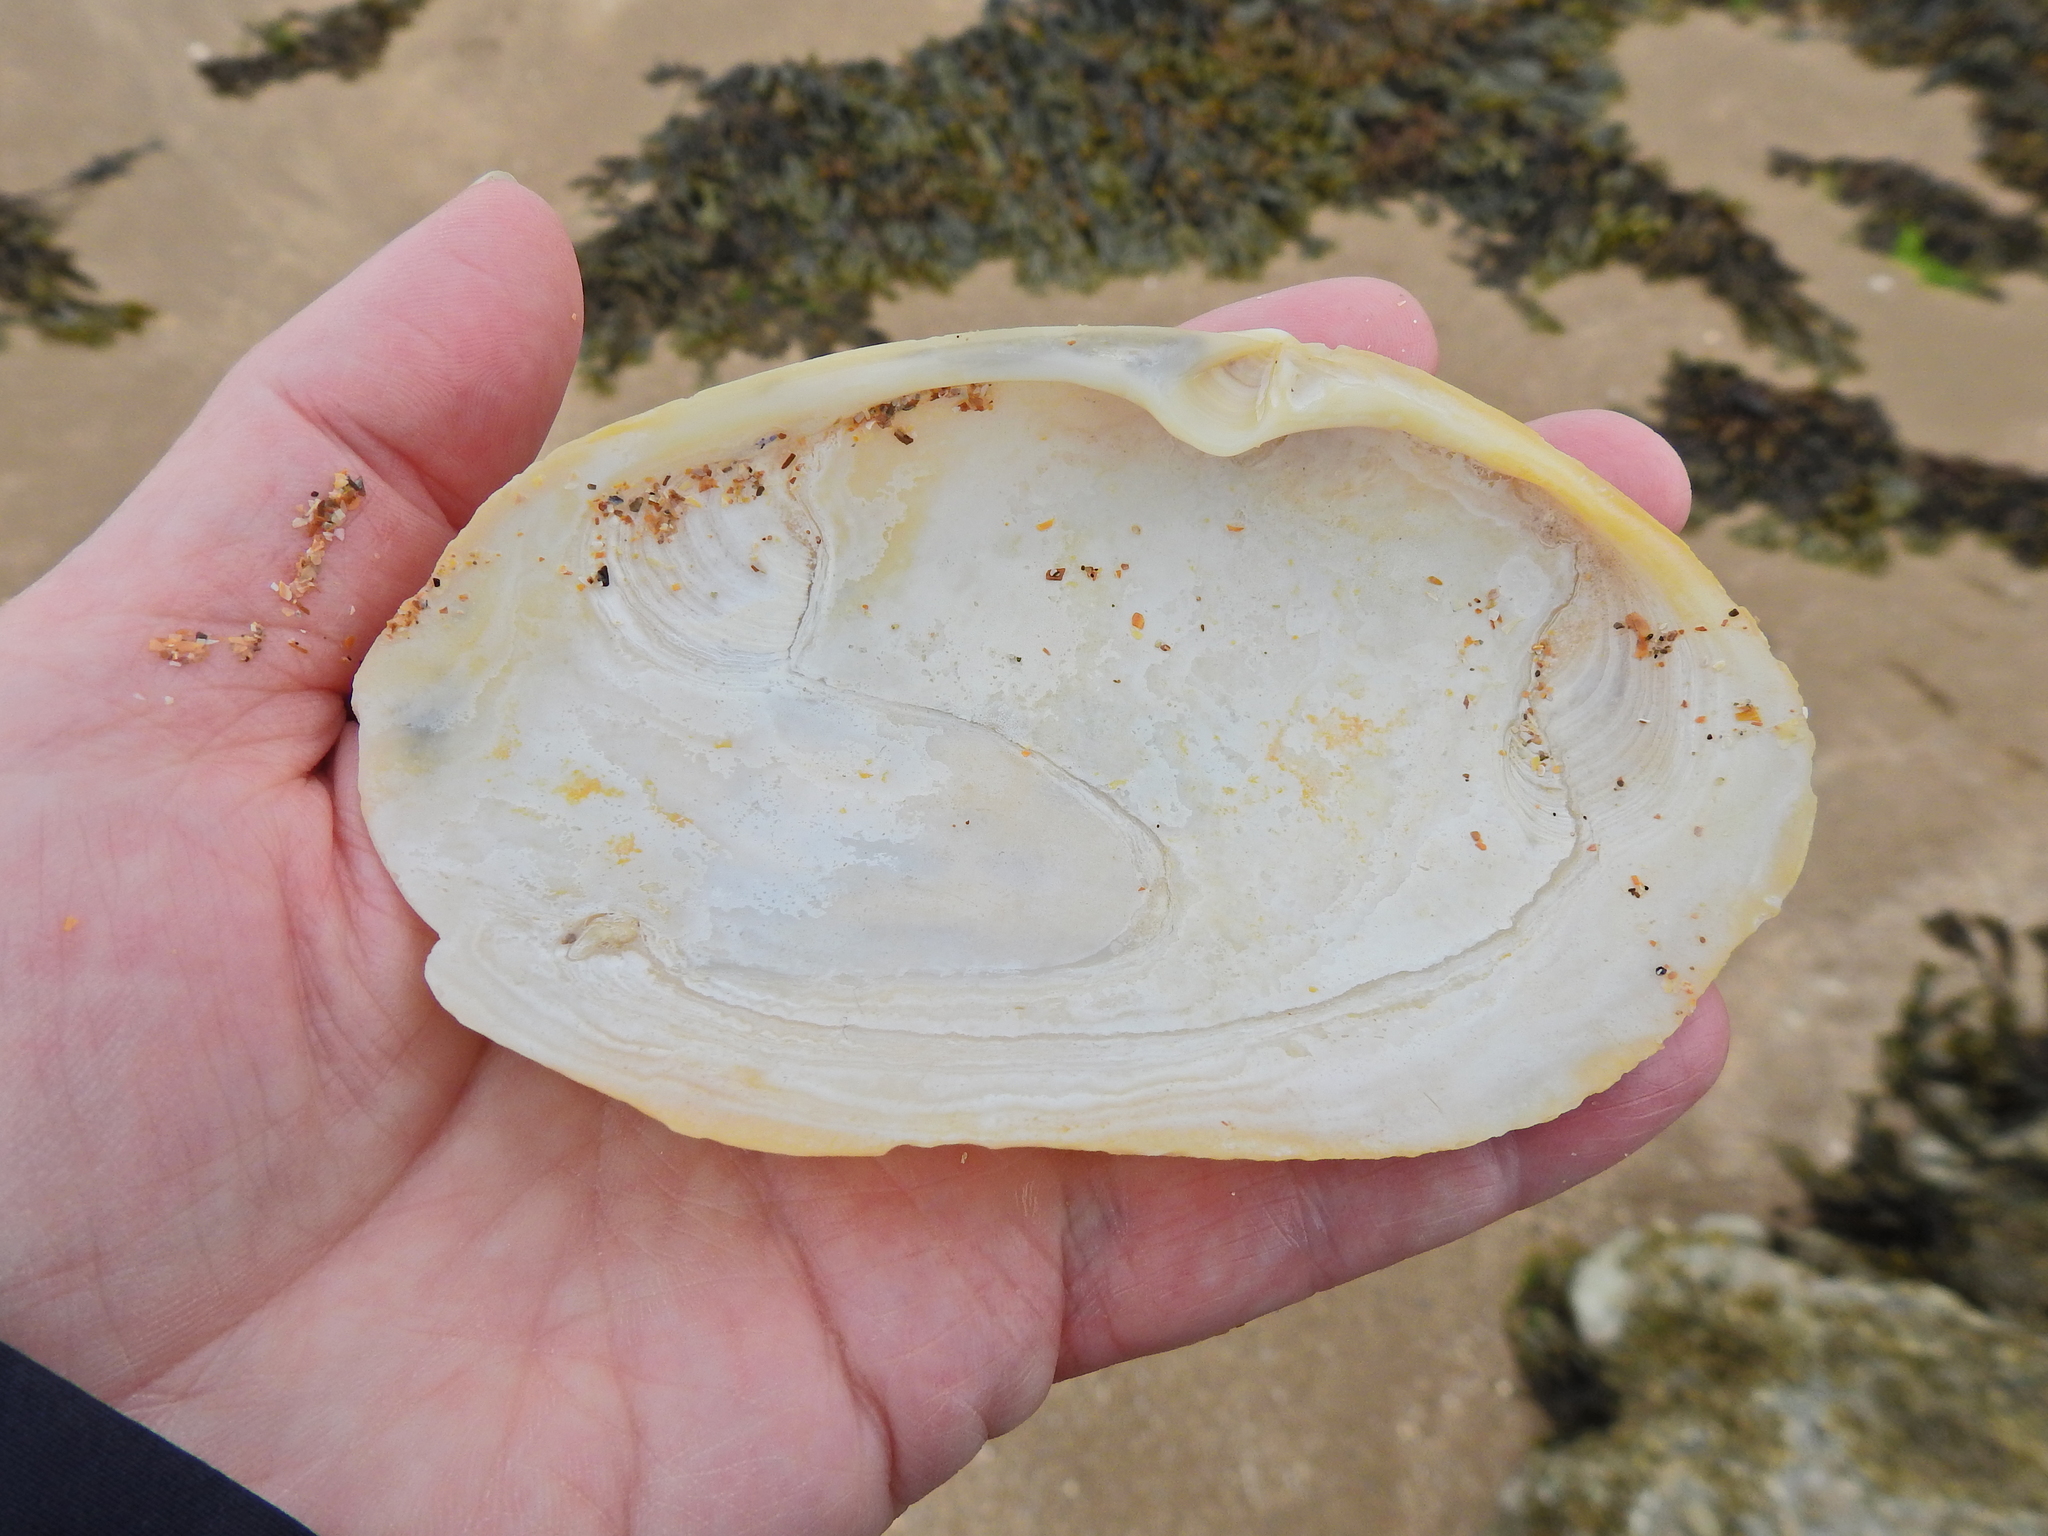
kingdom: Animalia
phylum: Mollusca
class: Bivalvia
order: Venerida
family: Mactridae
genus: Lutraria
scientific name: Lutraria lutraria
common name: Common otter shell
